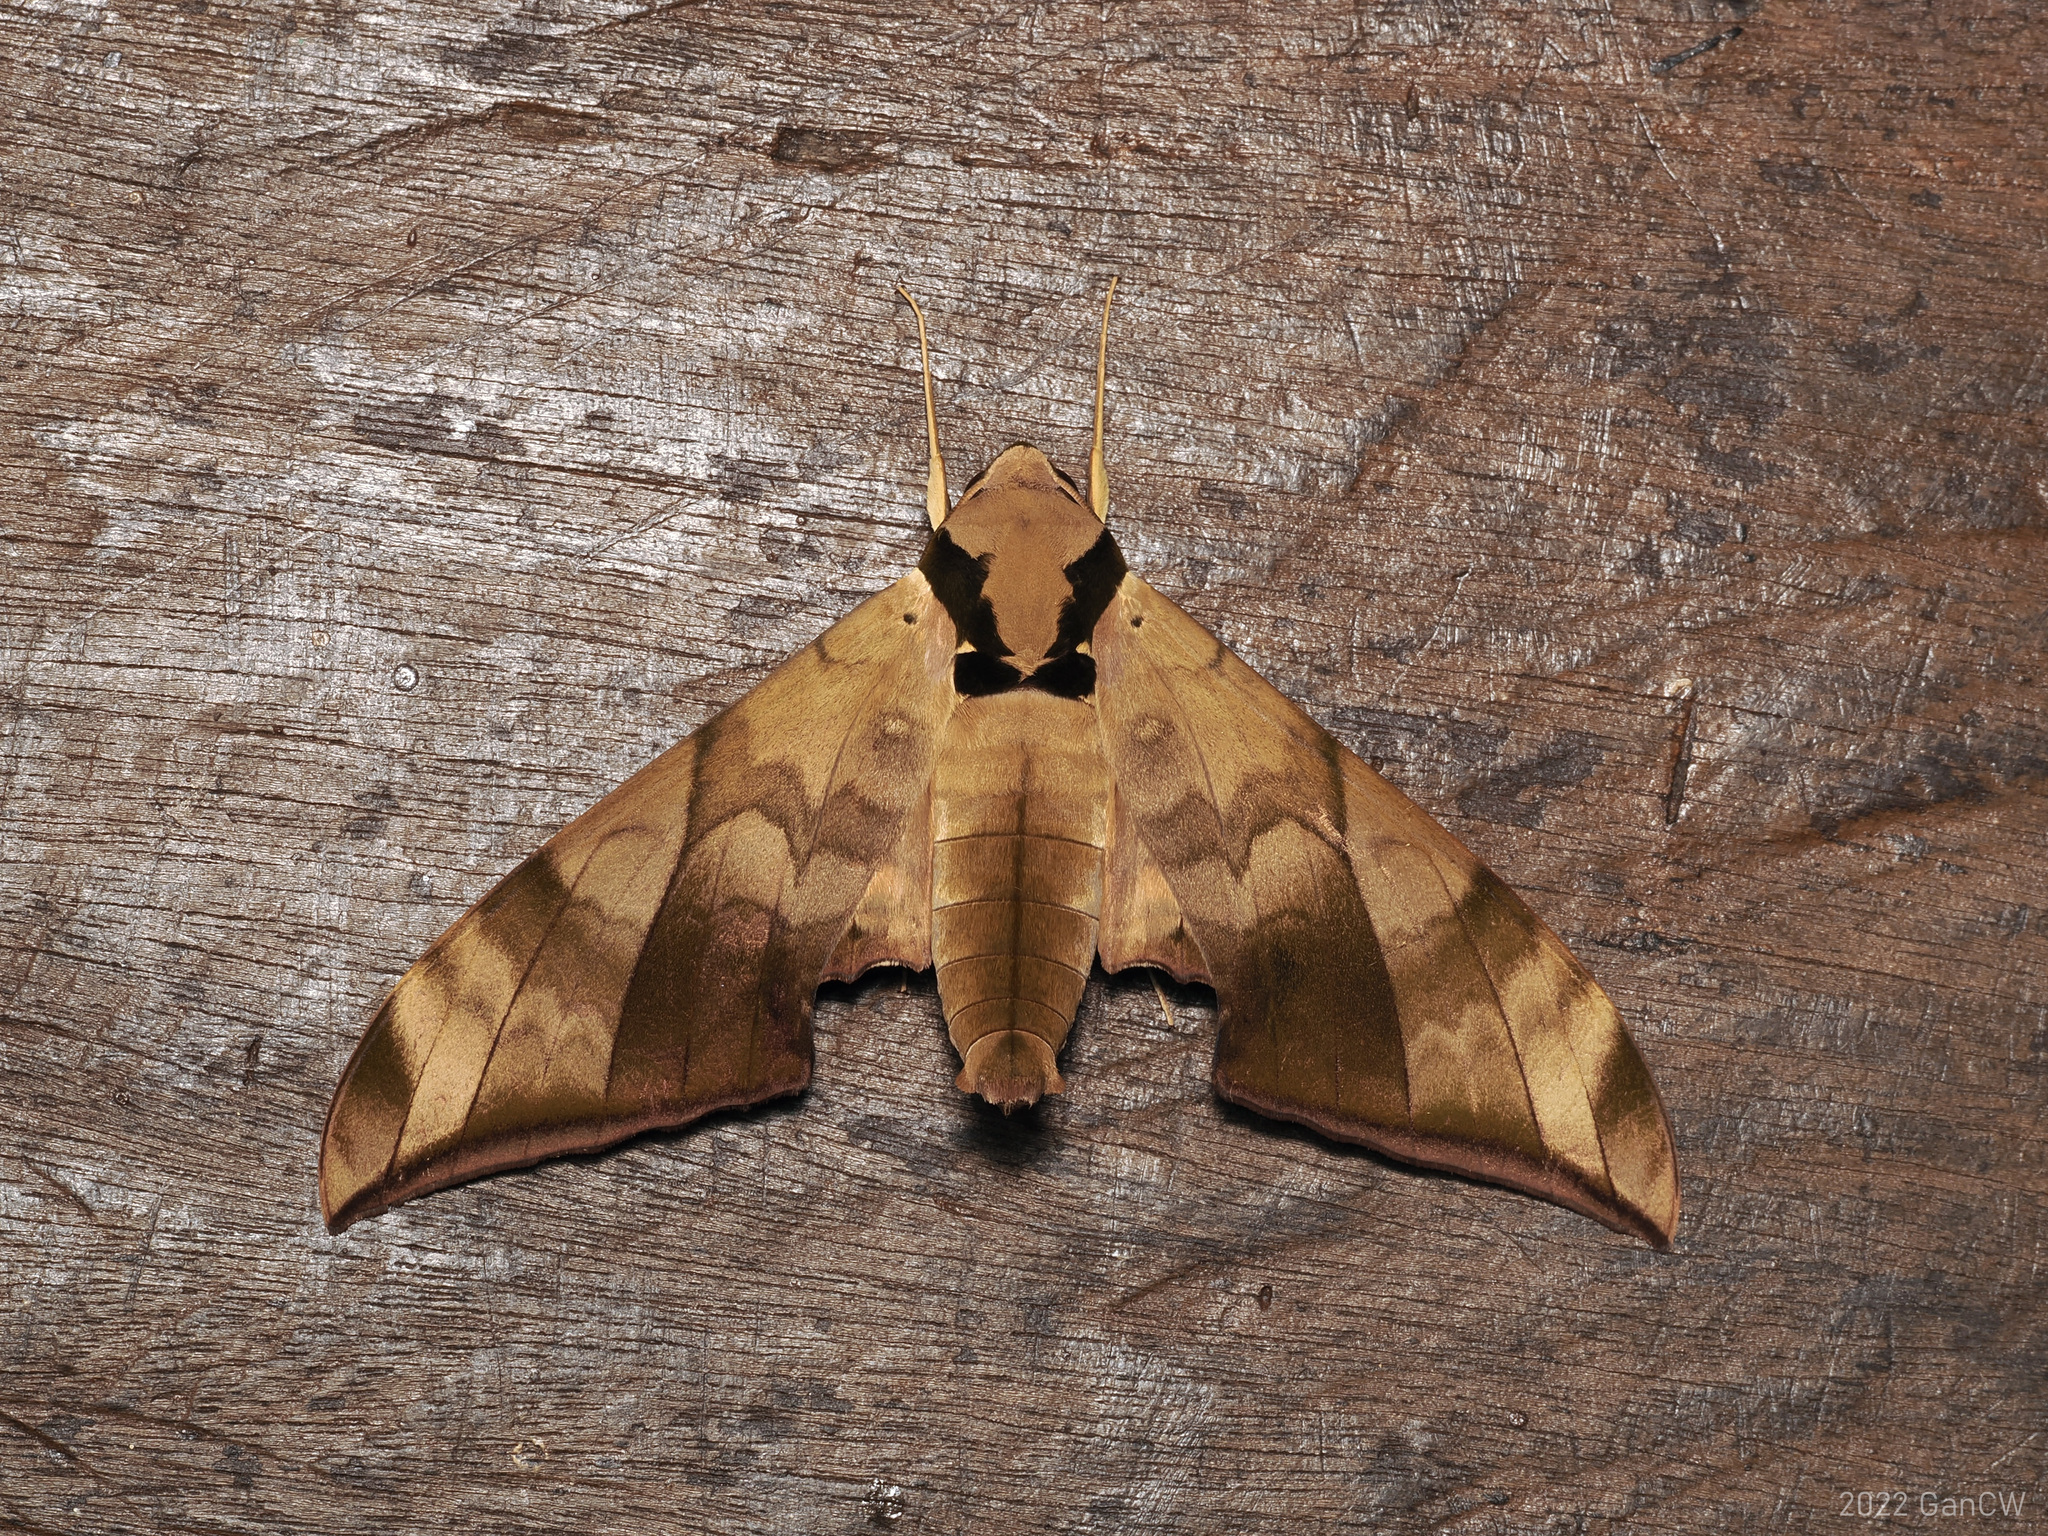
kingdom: Animalia
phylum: Arthropoda
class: Insecta
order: Lepidoptera
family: Sphingidae
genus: Ambulyx
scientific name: Ambulyx tattina
